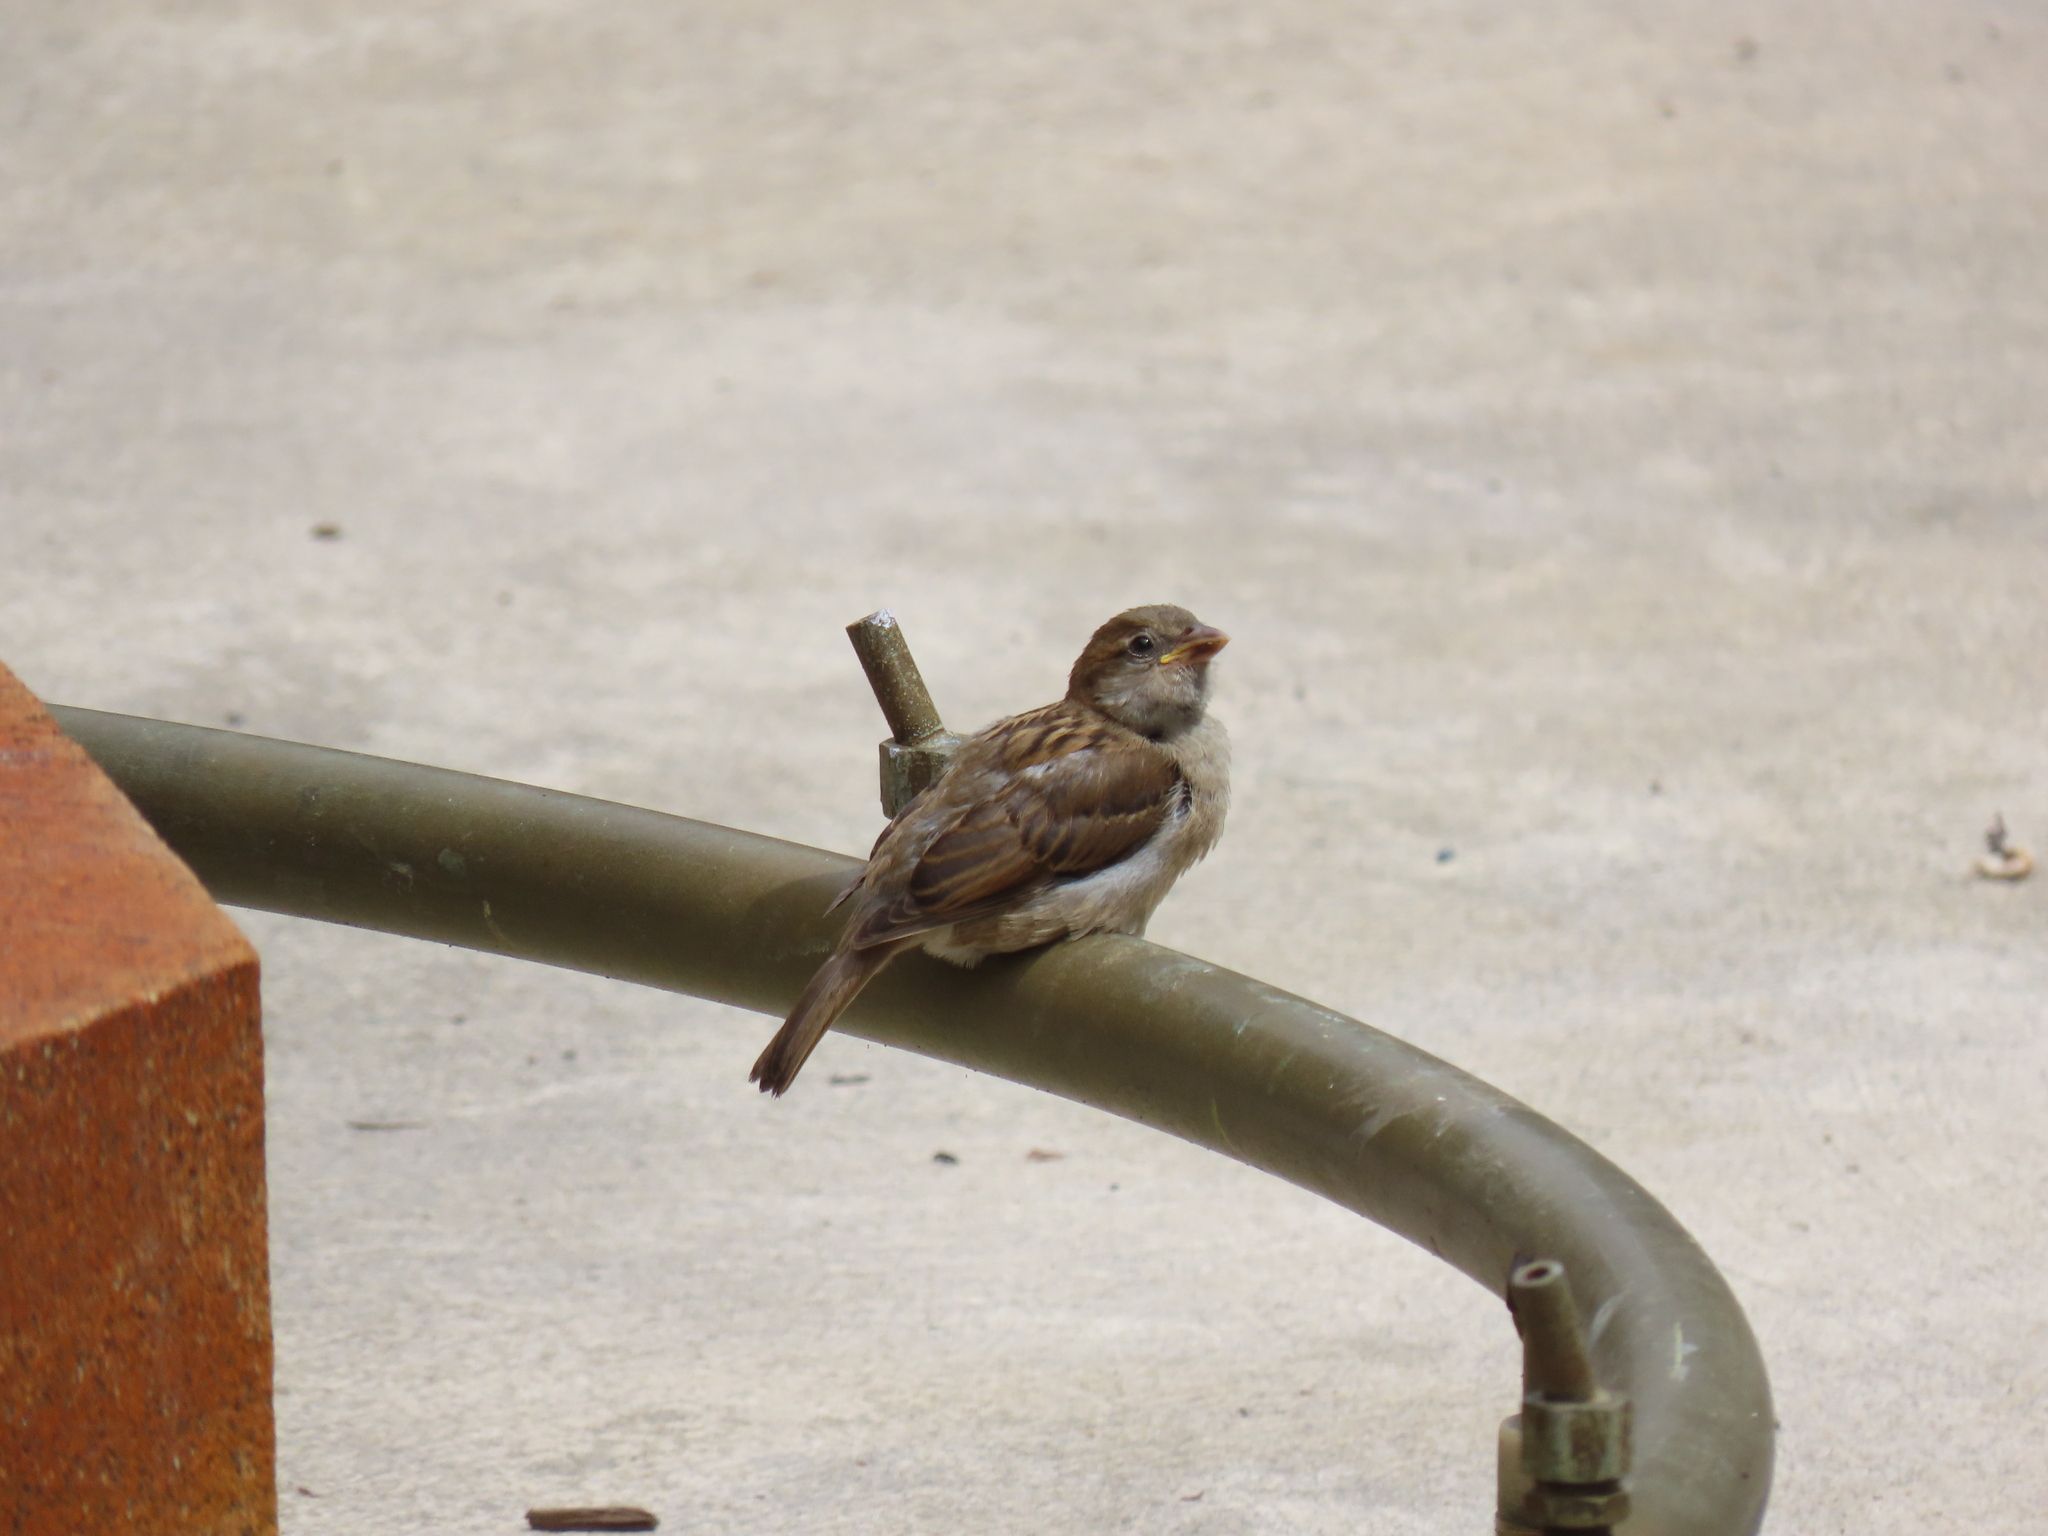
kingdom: Animalia
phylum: Chordata
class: Aves
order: Passeriformes
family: Passeridae
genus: Passer
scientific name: Passer domesticus
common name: House sparrow
